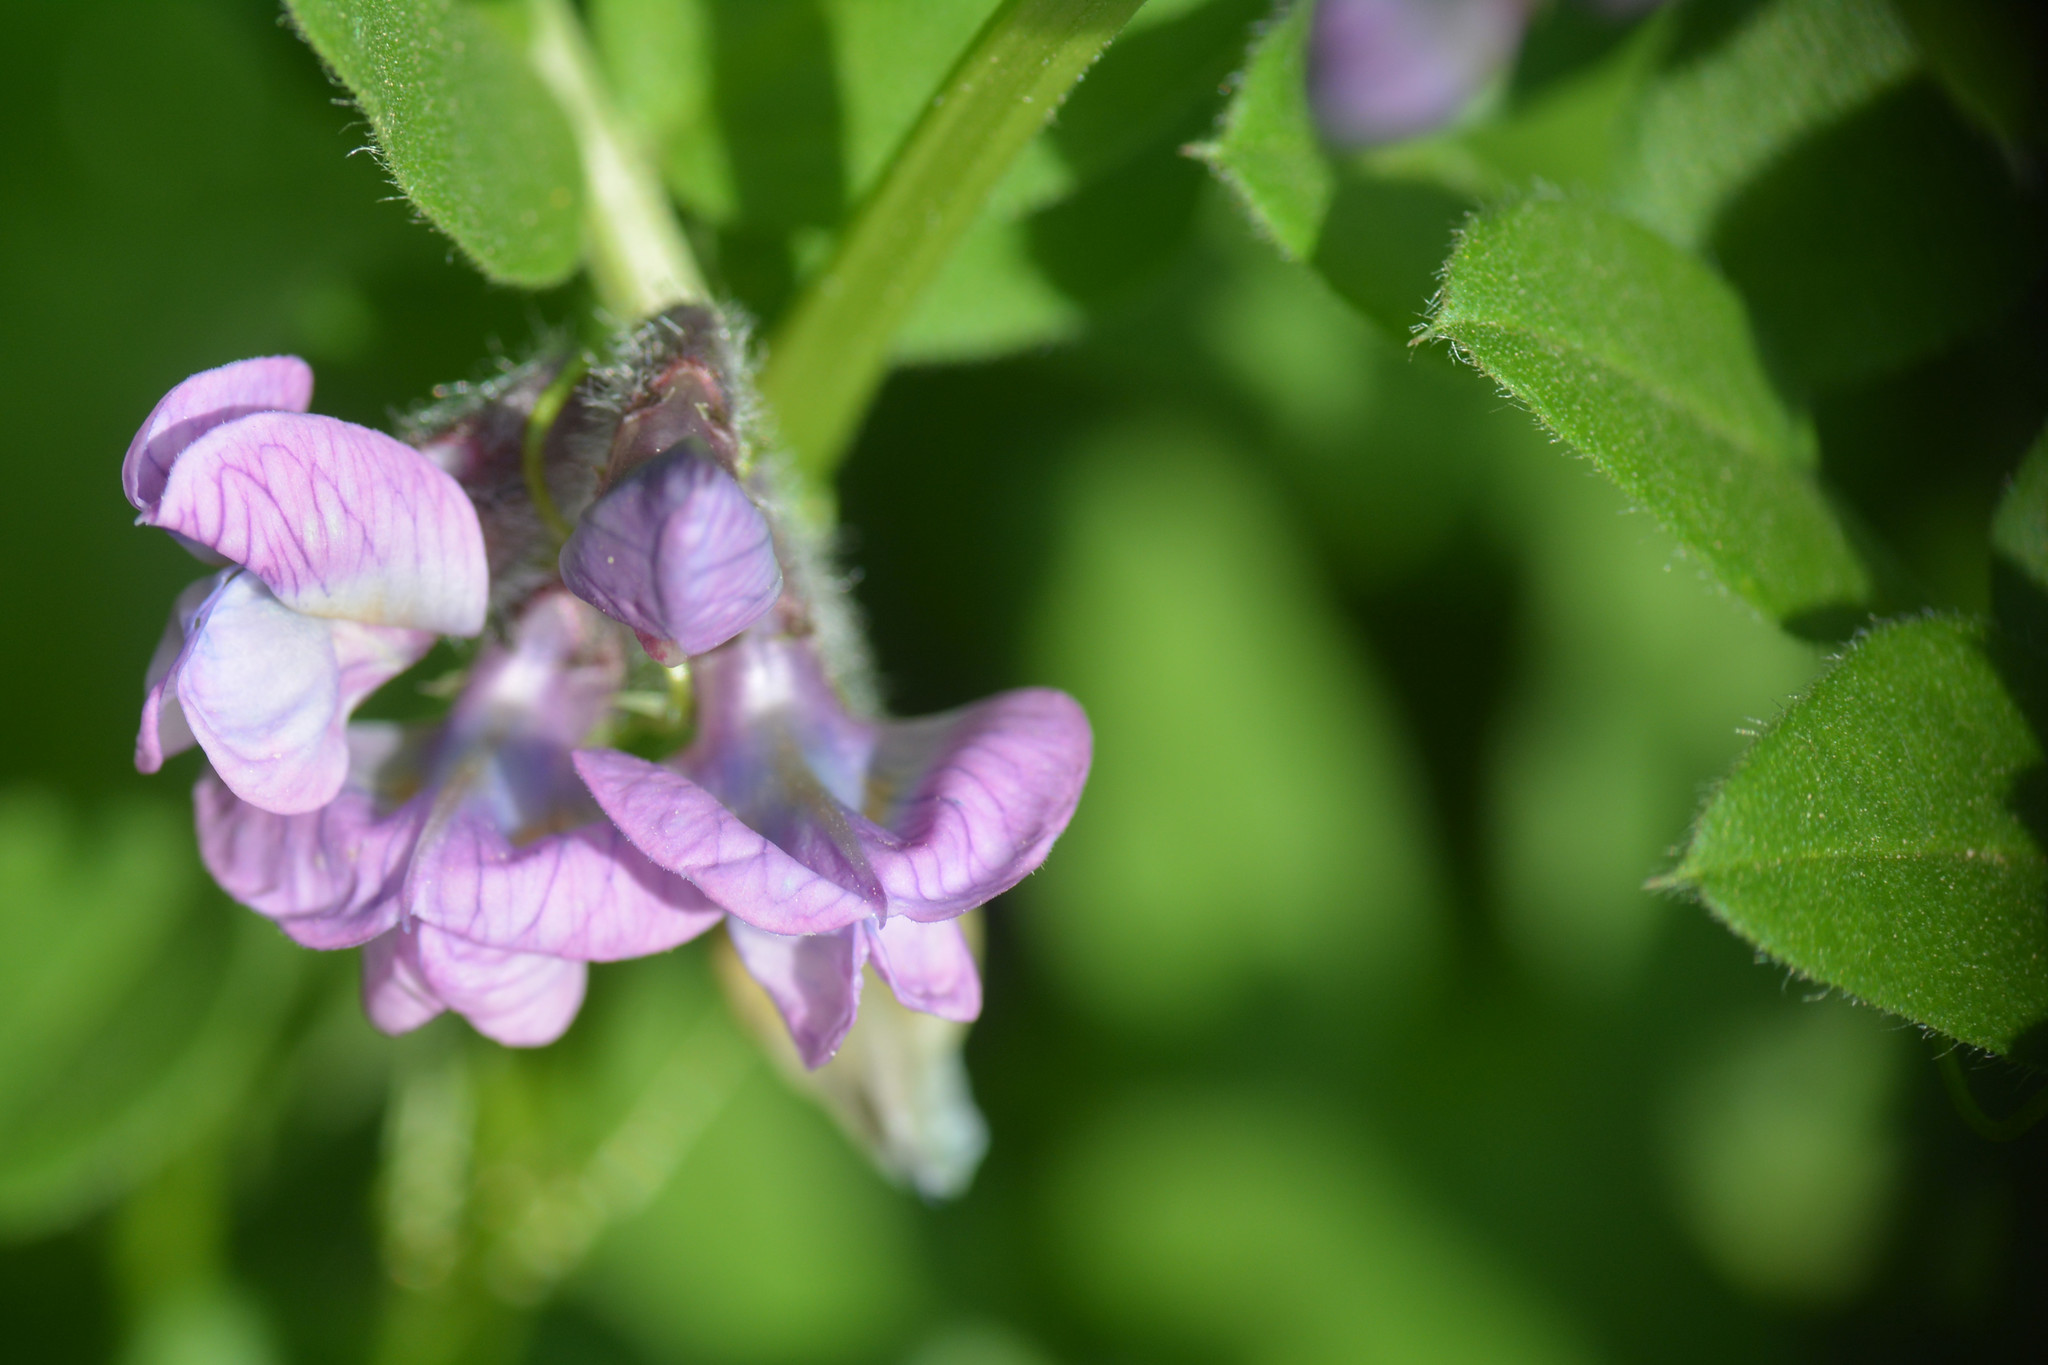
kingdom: Plantae
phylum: Tracheophyta
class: Magnoliopsida
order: Fabales
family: Fabaceae
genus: Vicia
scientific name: Vicia sepium
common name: Bush vetch
